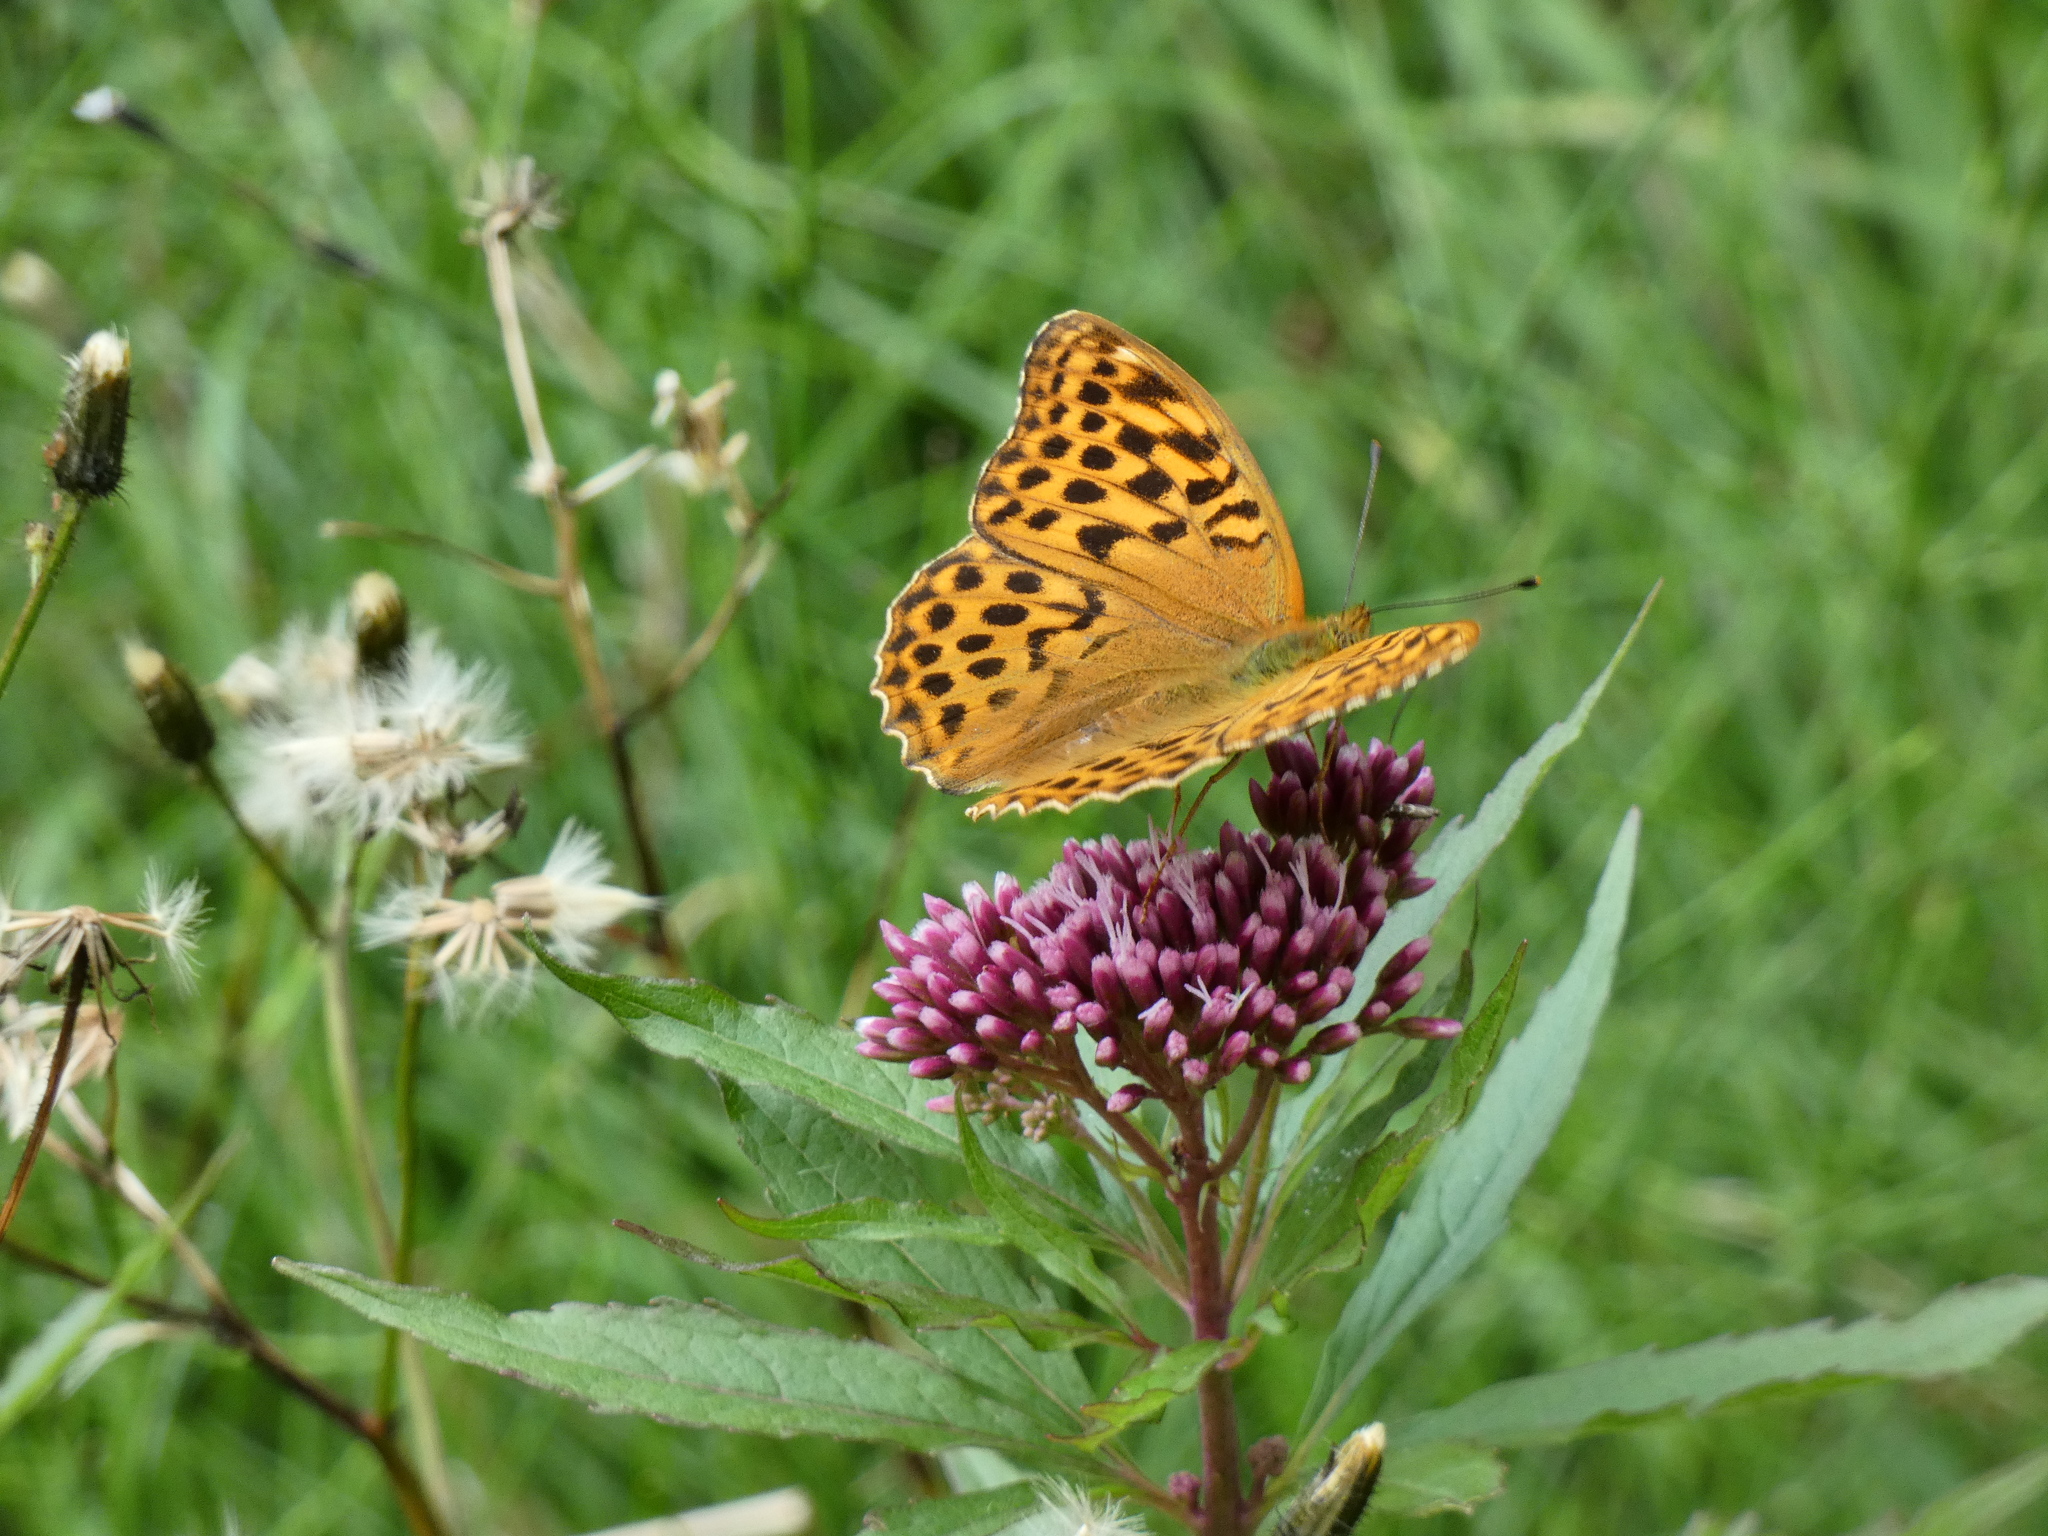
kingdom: Animalia
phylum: Arthropoda
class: Insecta
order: Lepidoptera
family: Nymphalidae
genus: Argynnis
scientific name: Argynnis paphia
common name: Silver-washed fritillary
